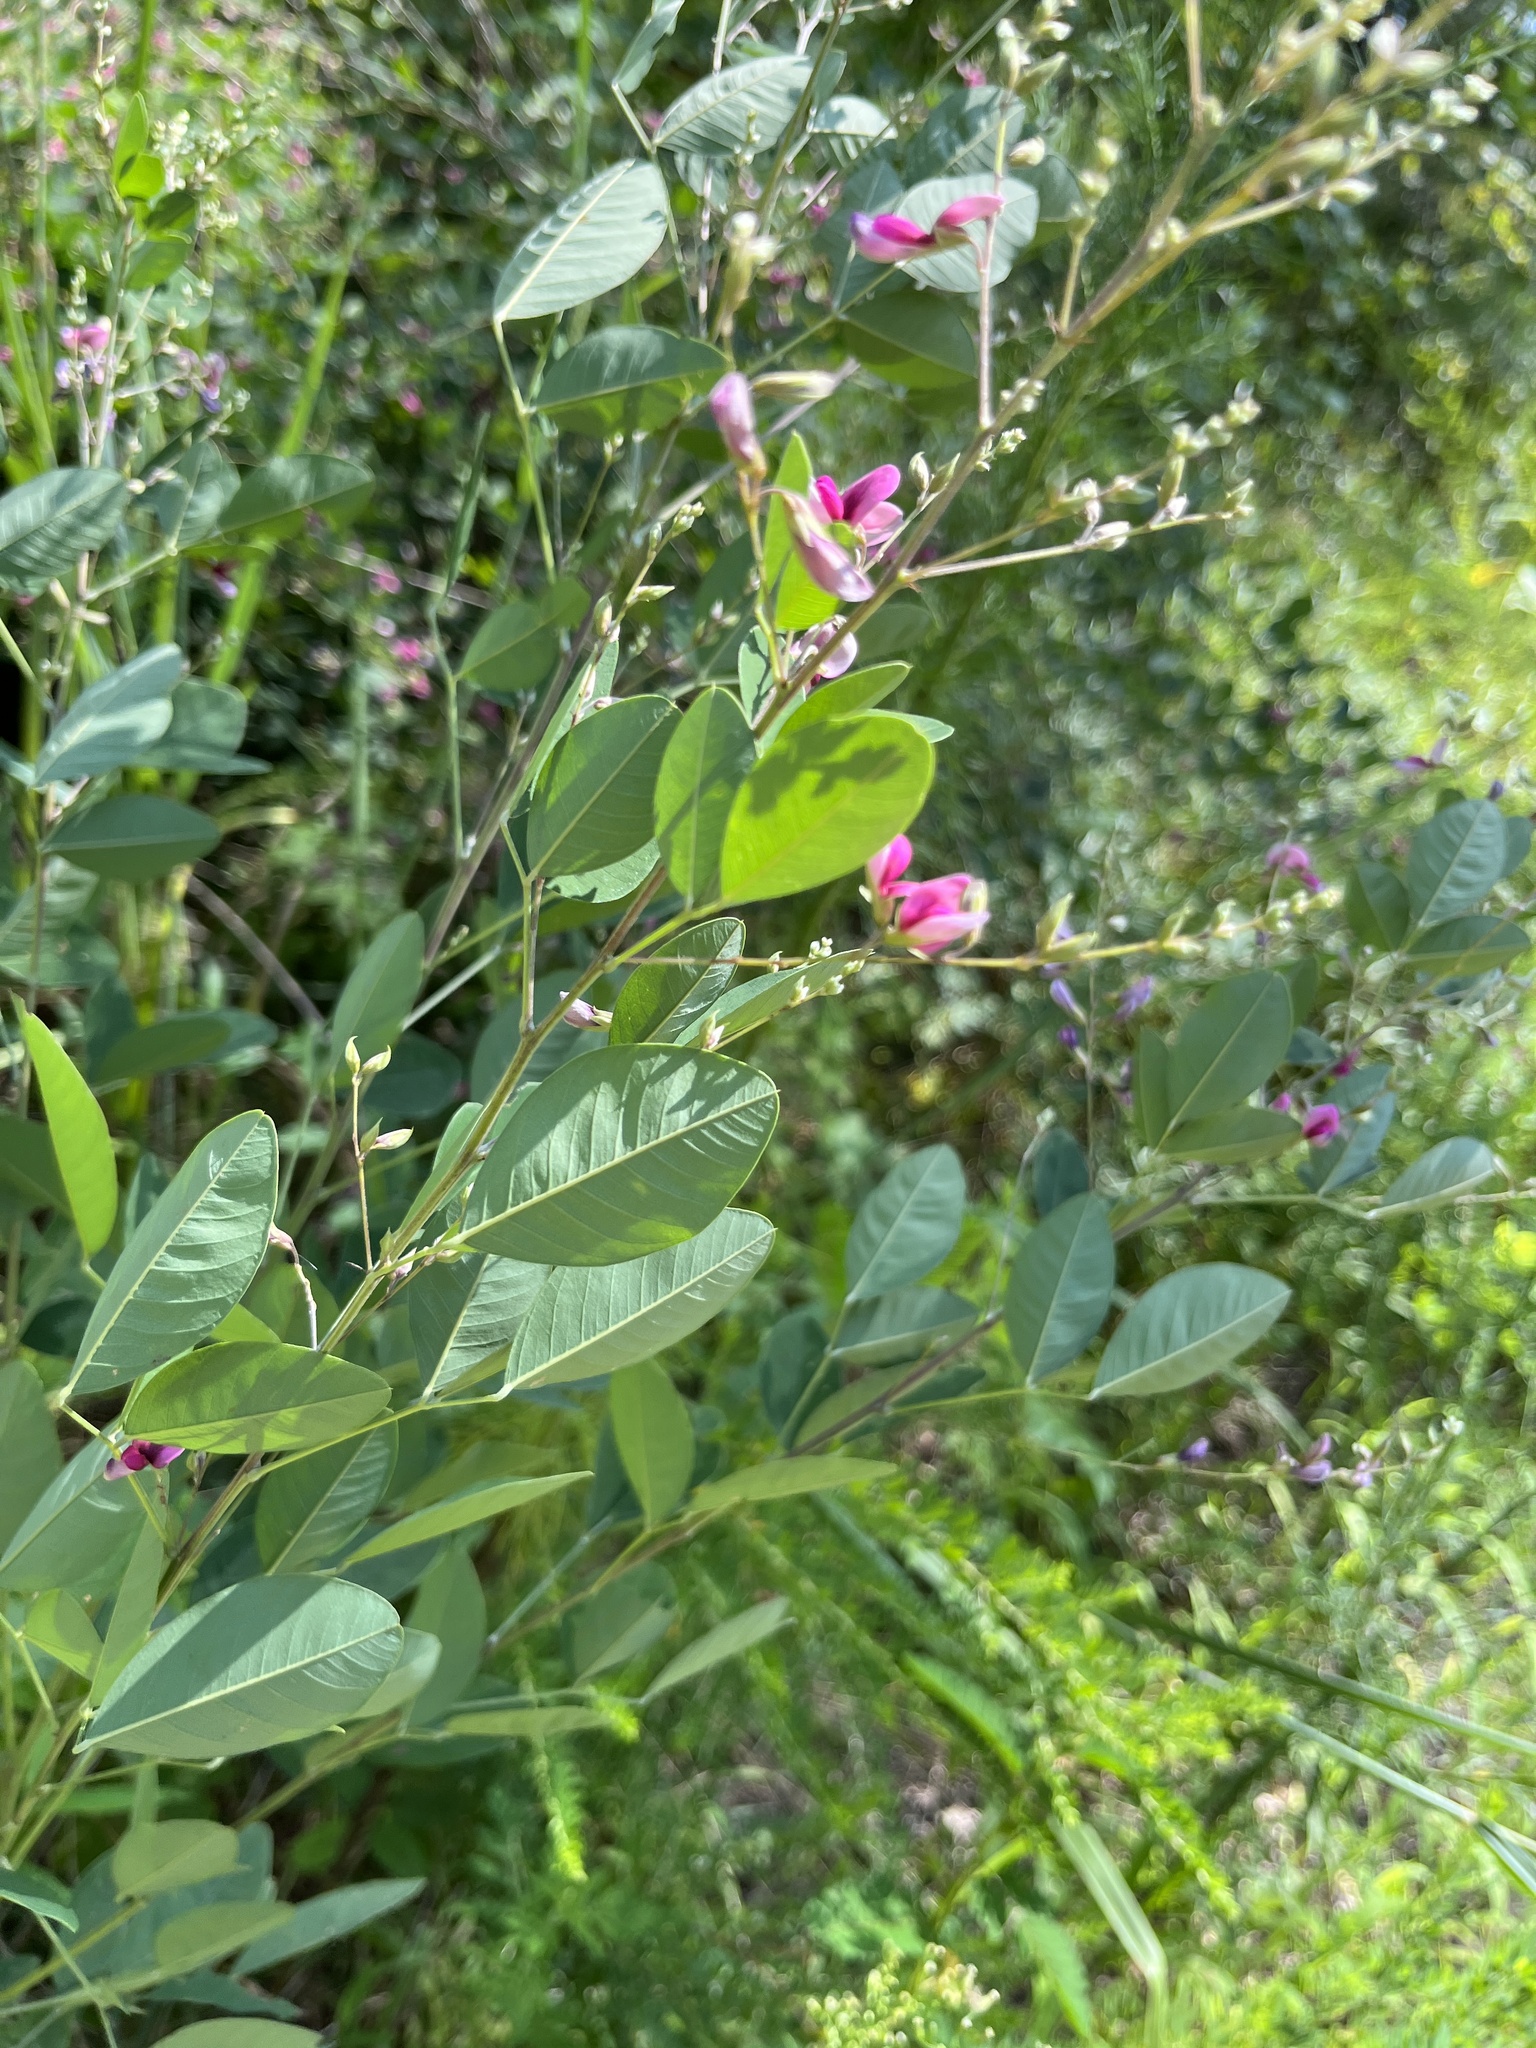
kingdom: Plantae
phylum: Tracheophyta
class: Magnoliopsida
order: Fabales
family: Fabaceae
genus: Lespedeza
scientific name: Lespedeza bicolor
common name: Shrub lespedeza
